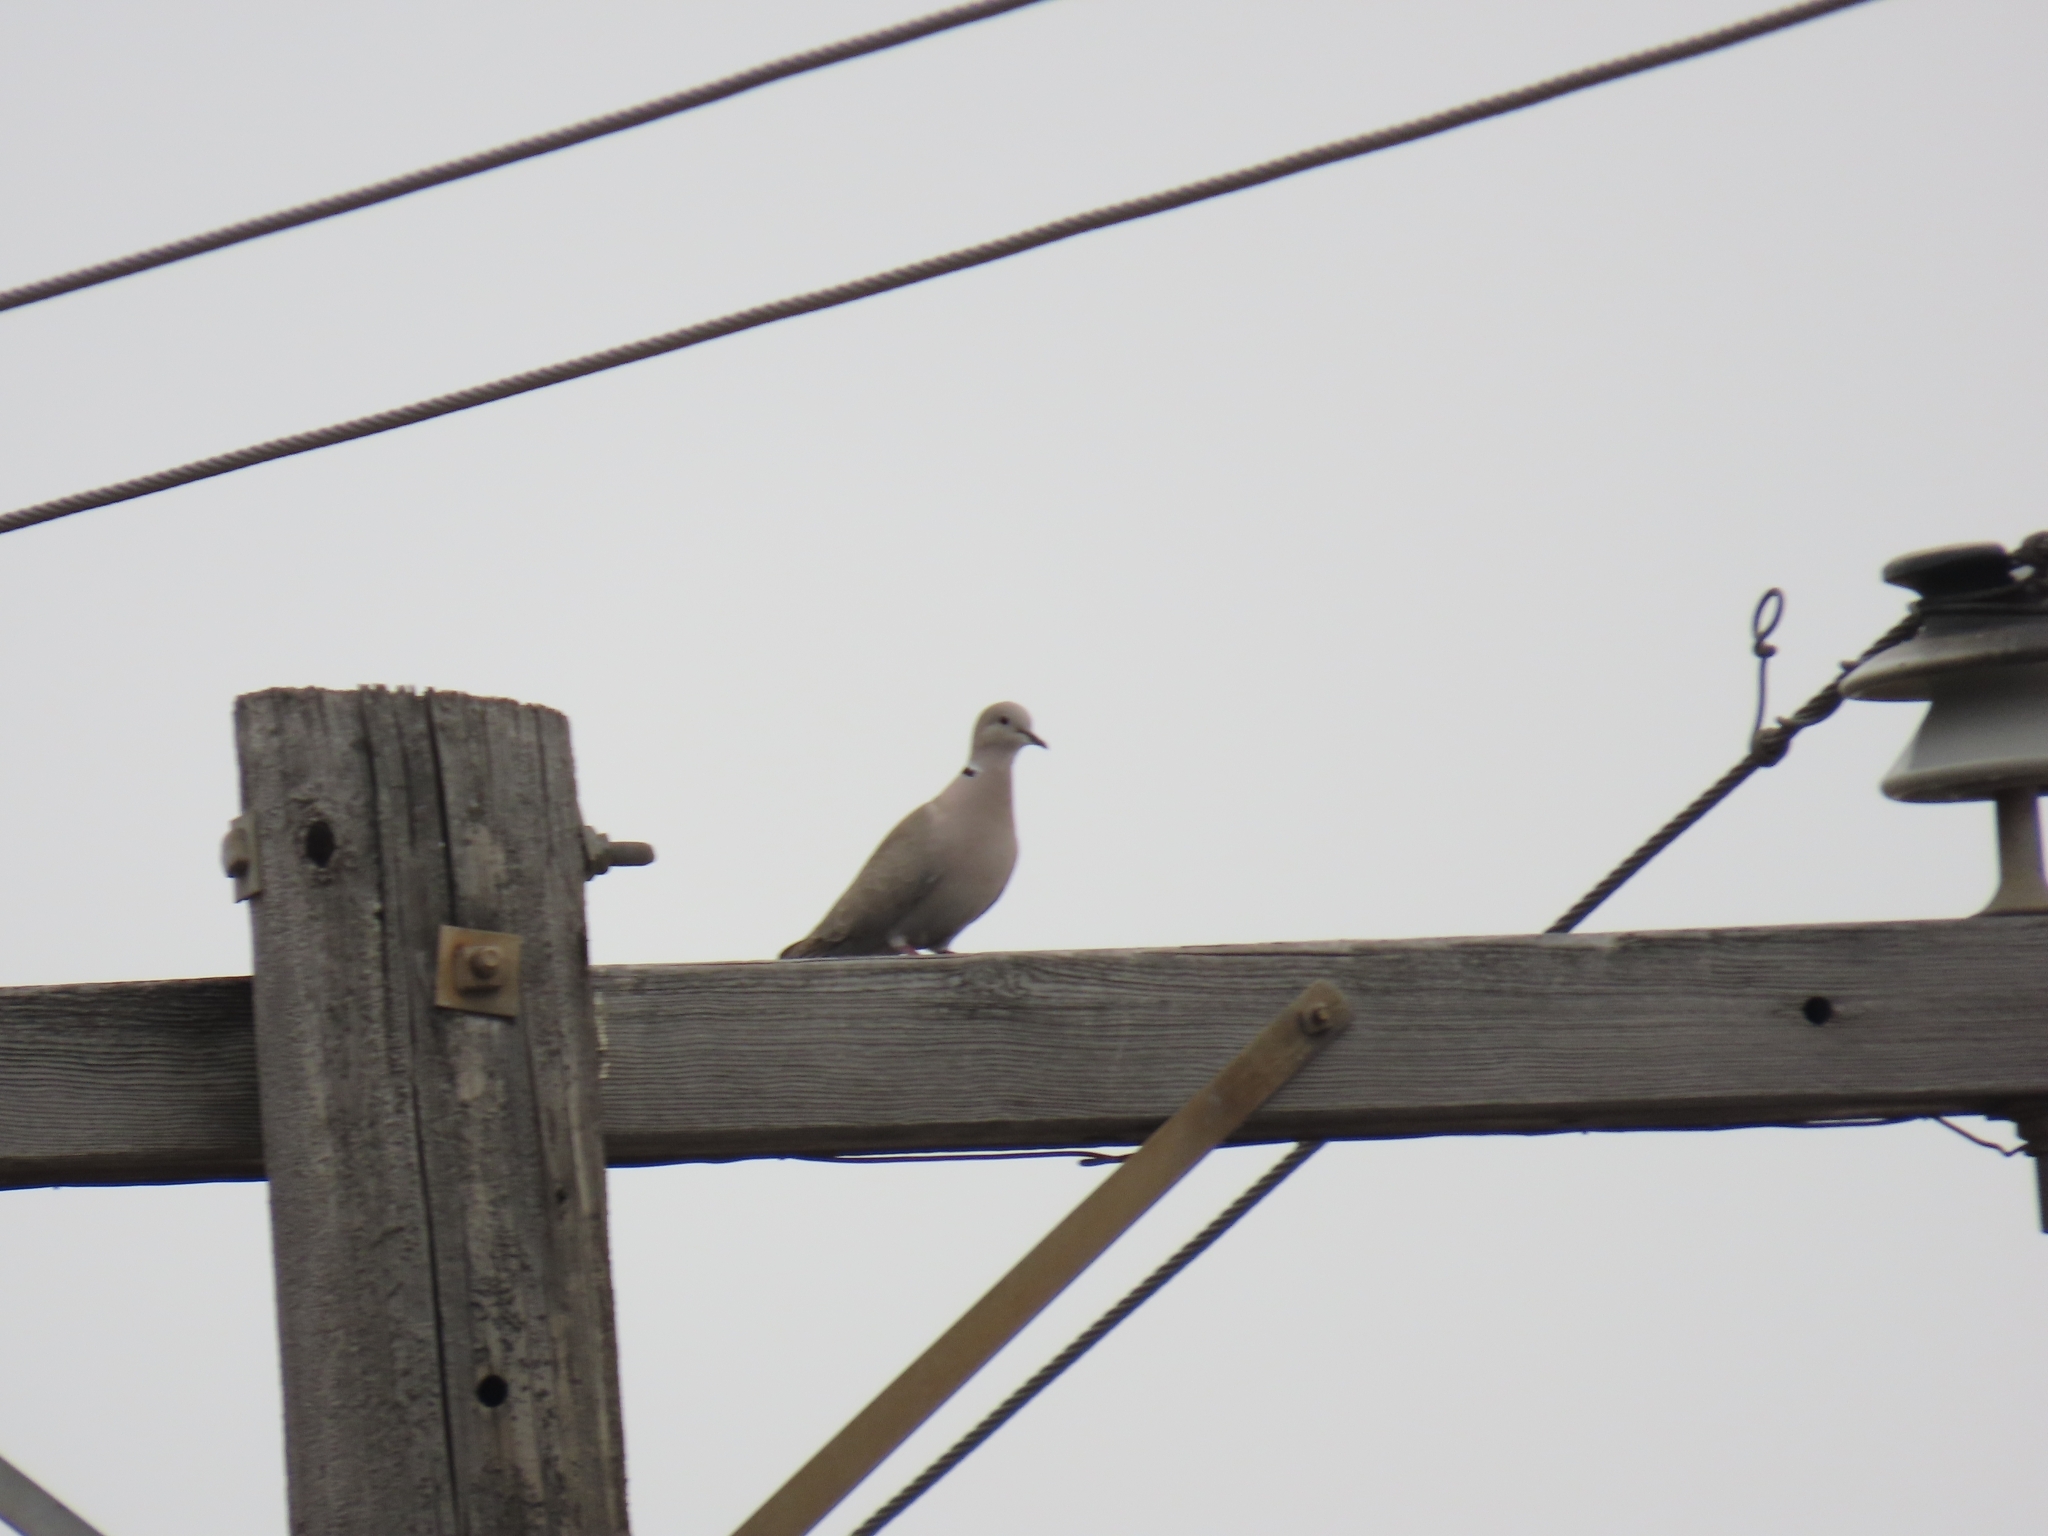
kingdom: Animalia
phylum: Chordata
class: Aves
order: Columbiformes
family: Columbidae
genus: Streptopelia
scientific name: Streptopelia decaocto
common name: Eurasian collared dove
